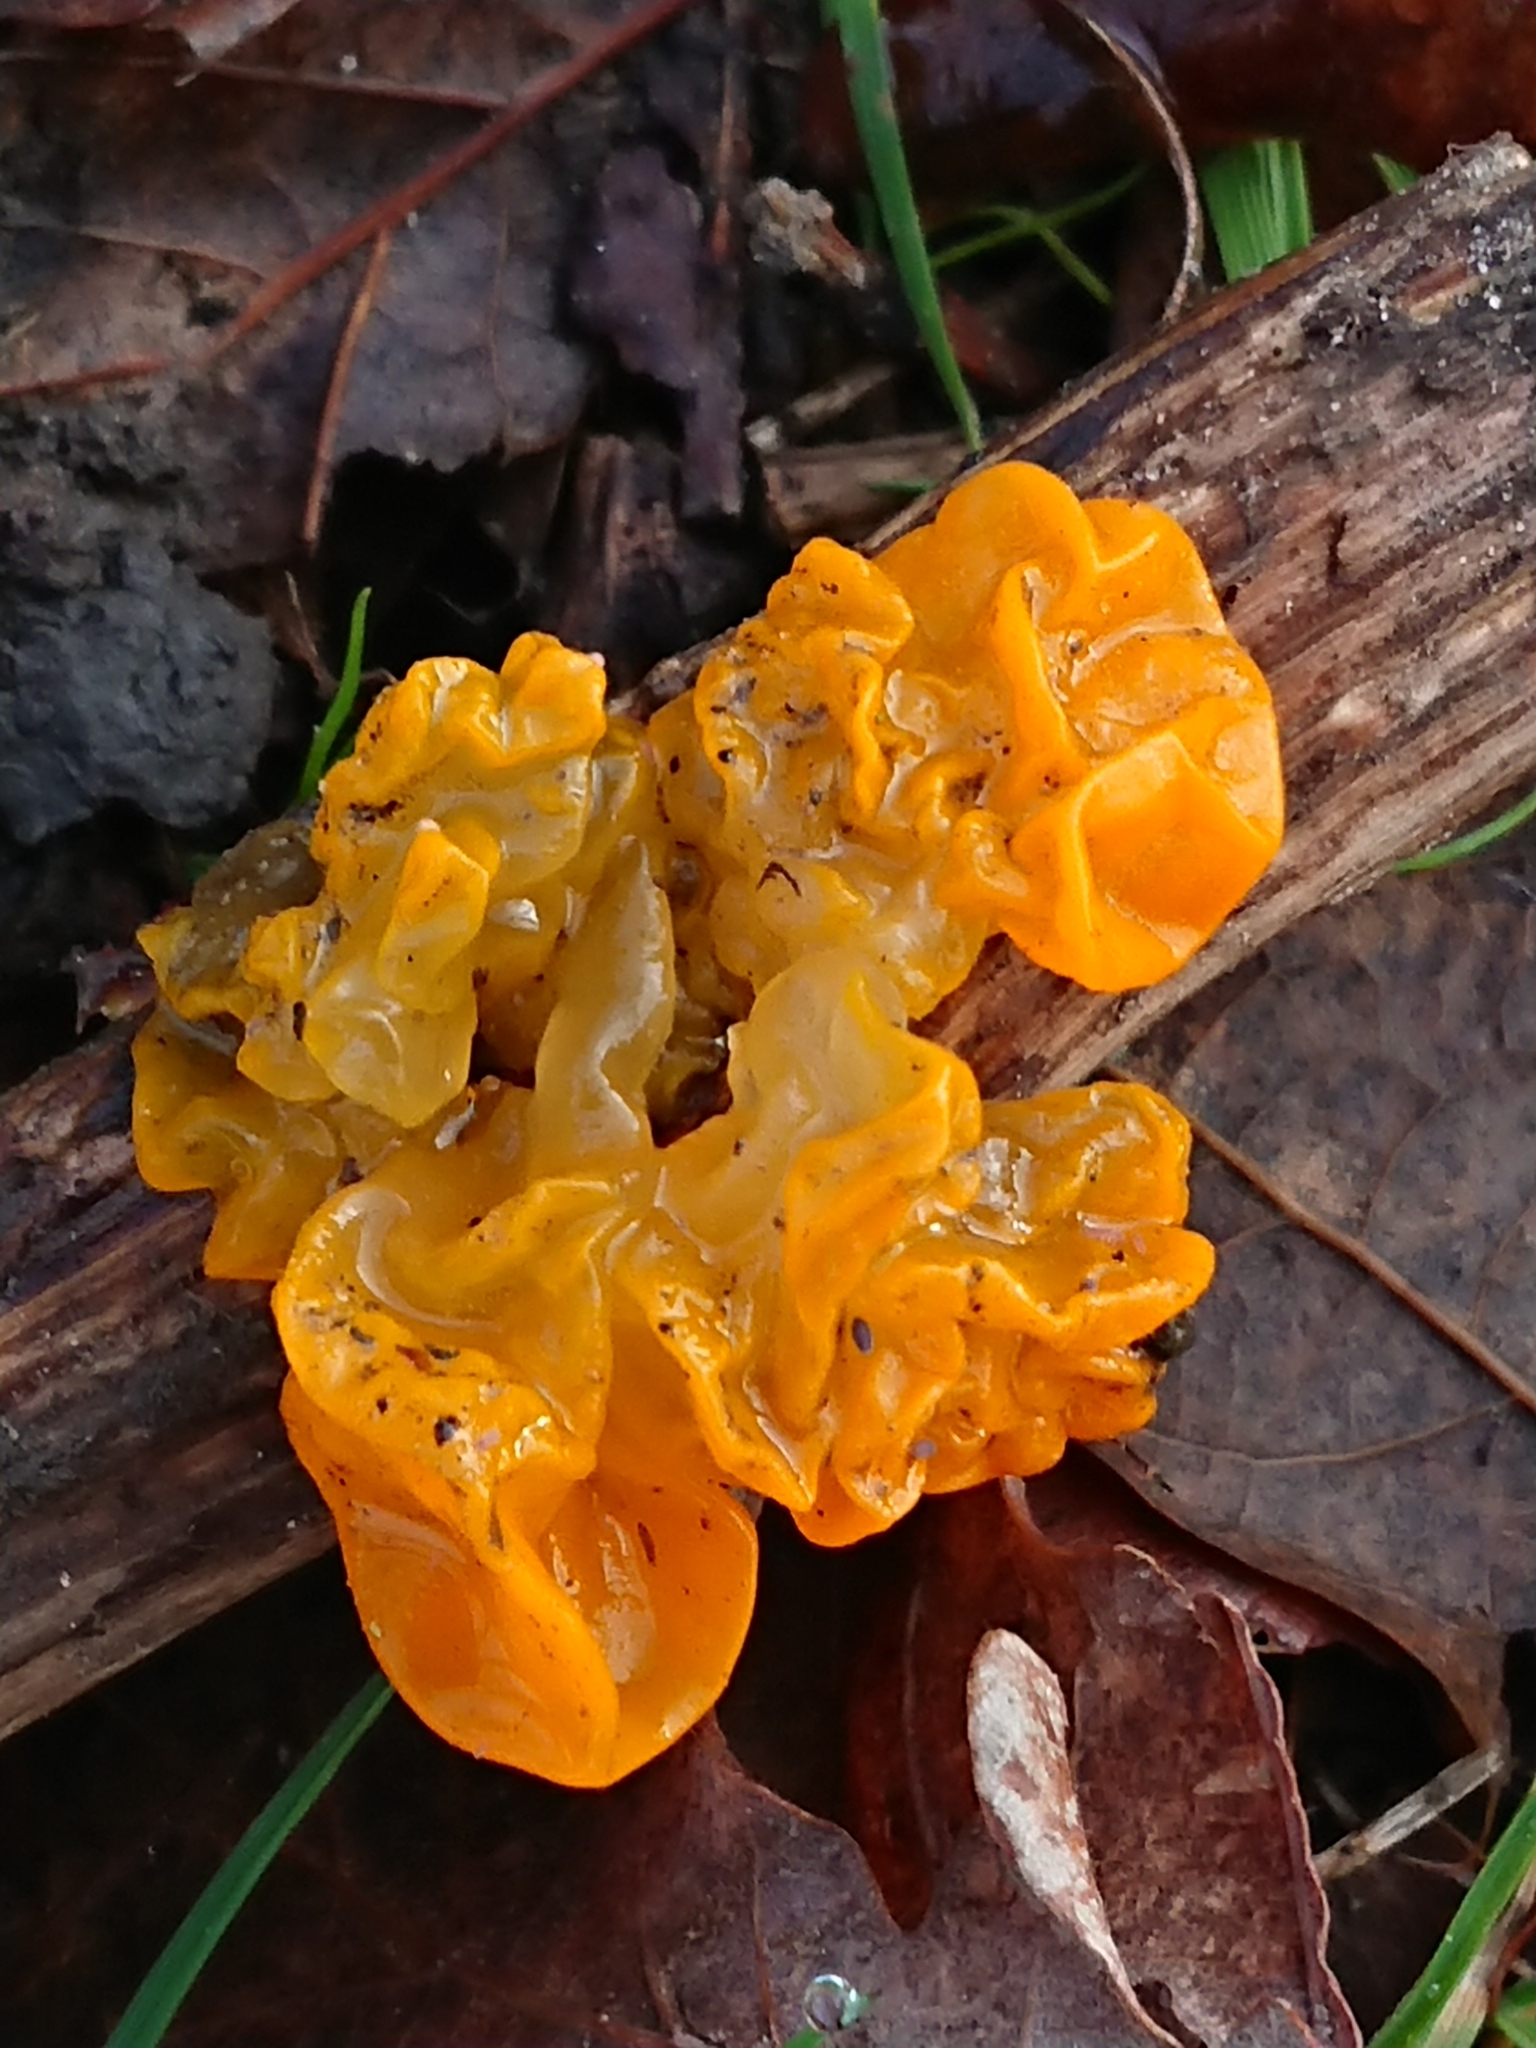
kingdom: Fungi
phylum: Basidiomycota
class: Tremellomycetes
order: Tremellales
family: Tremellaceae
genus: Tremella
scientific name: Tremella mesenterica
